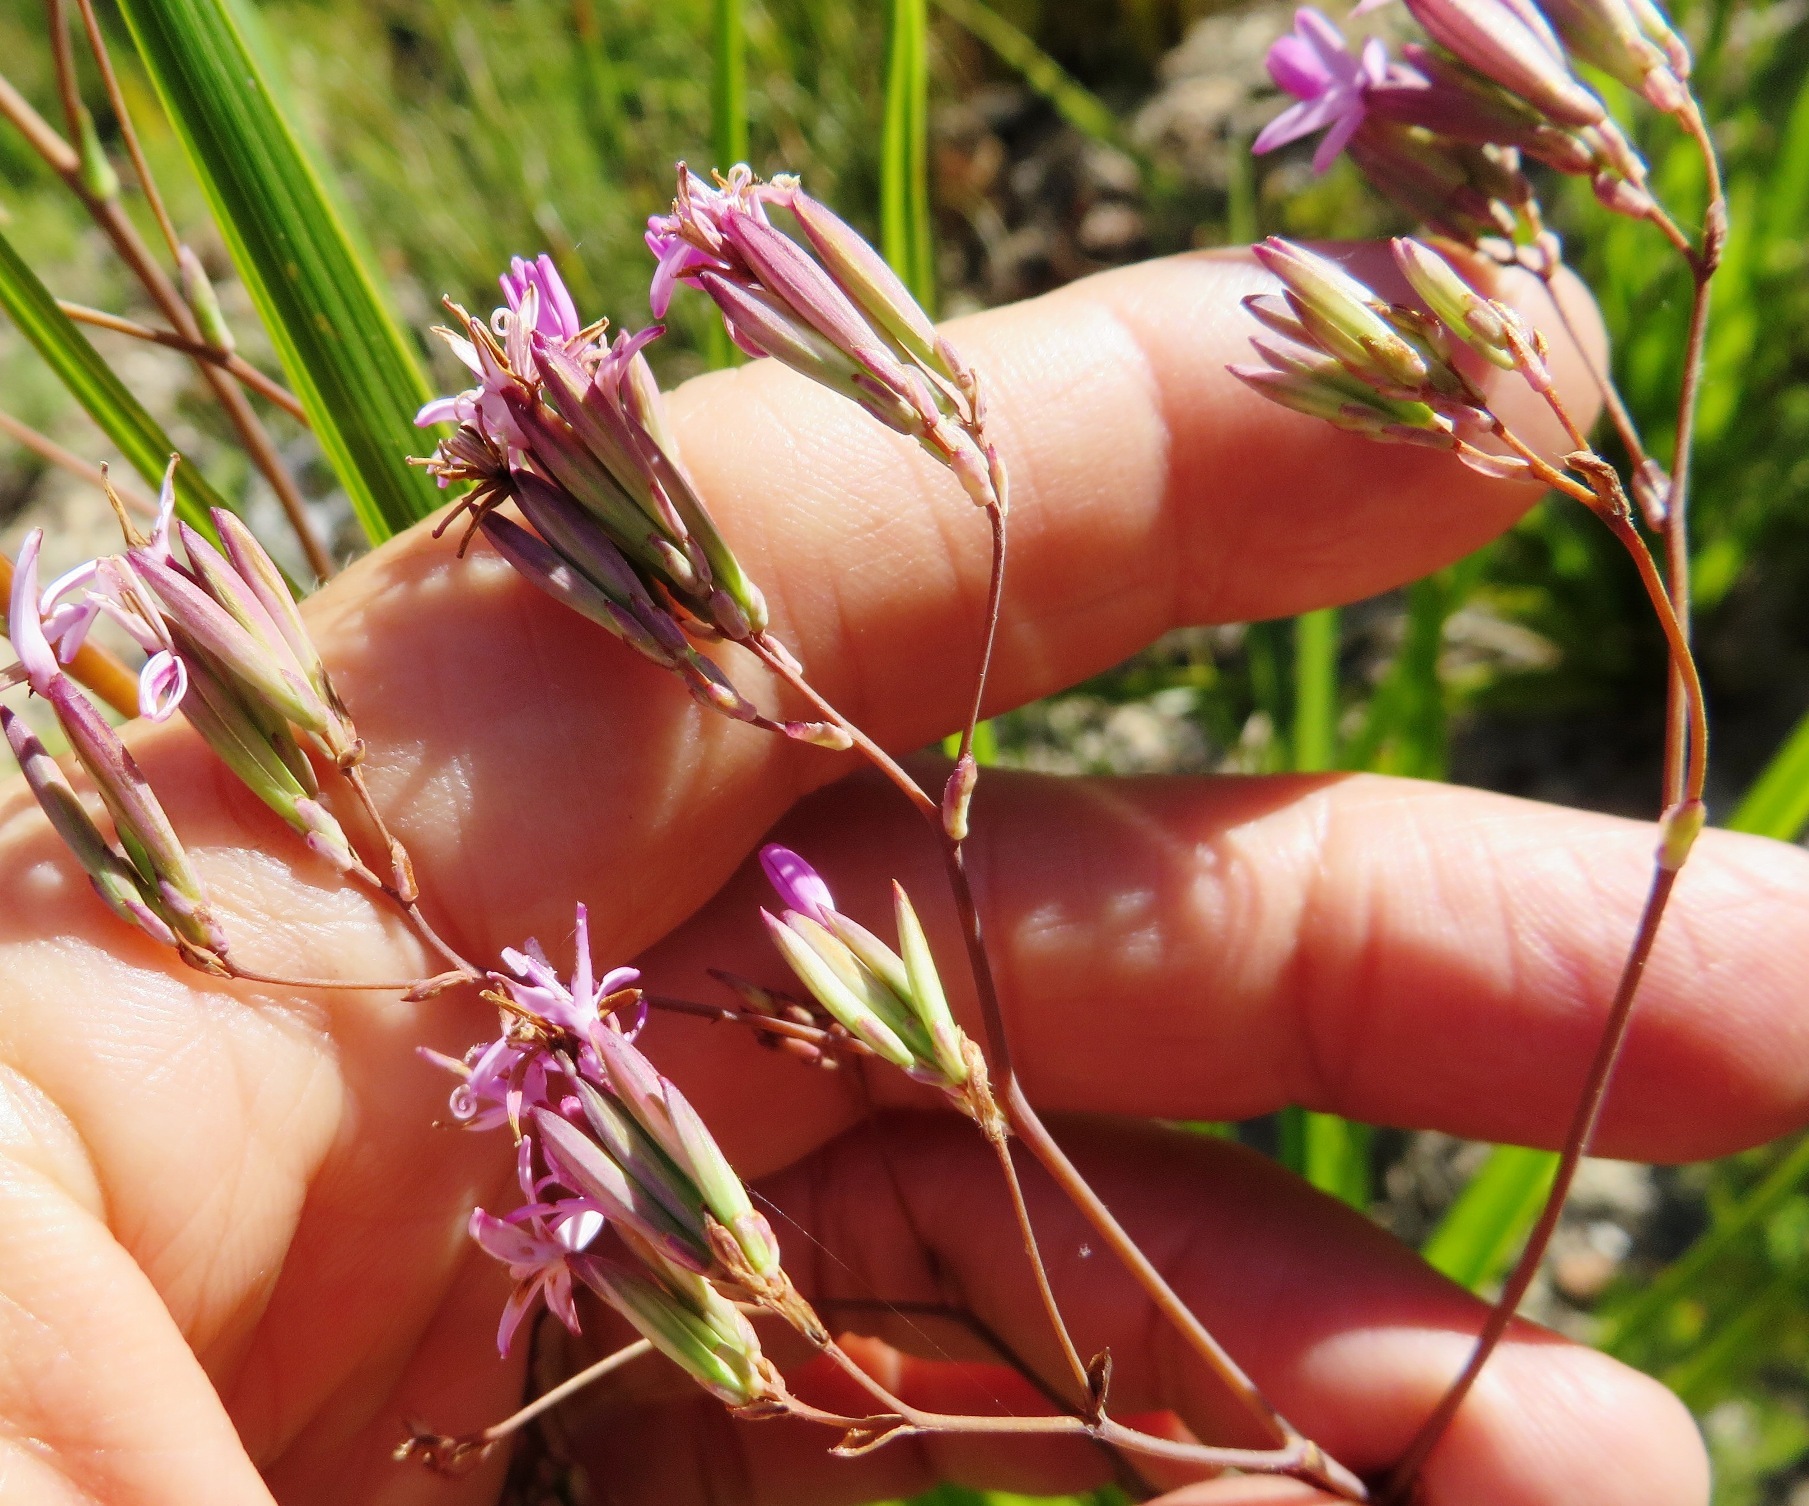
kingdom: Plantae
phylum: Tracheophyta
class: Magnoliopsida
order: Asterales
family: Asteraceae
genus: Corymbium
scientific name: Corymbium glabrum
